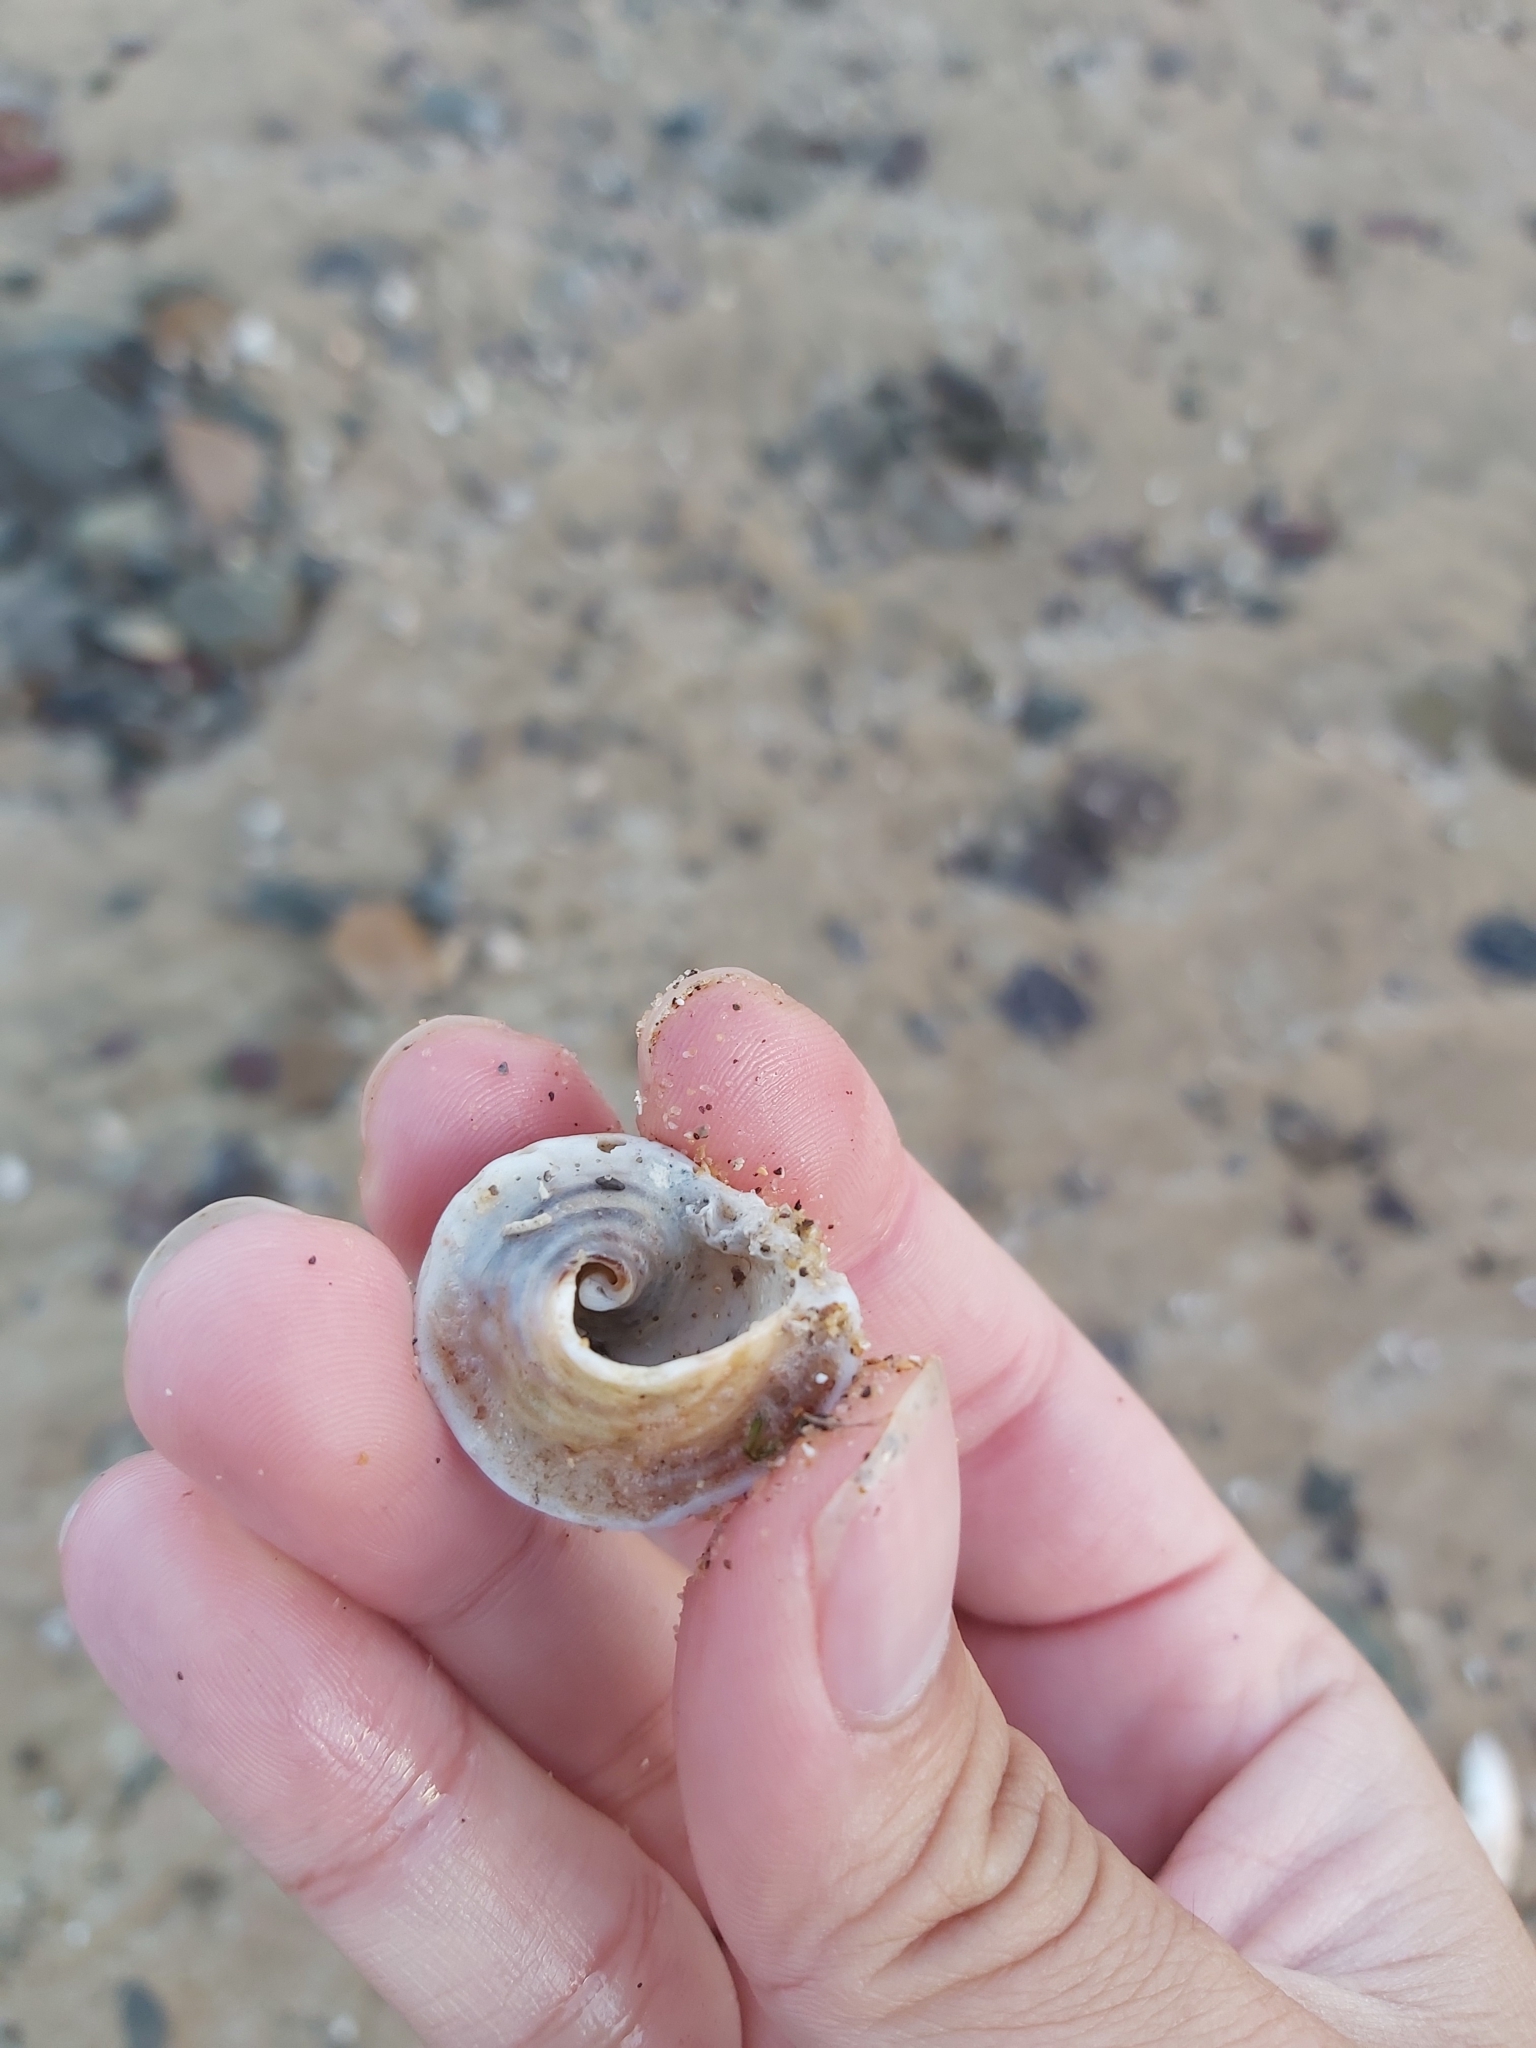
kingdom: Animalia
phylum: Mollusca
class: Gastropoda
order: Littorinimorpha
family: Cymatiidae
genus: Cabestana
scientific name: Cabestana spengleri
